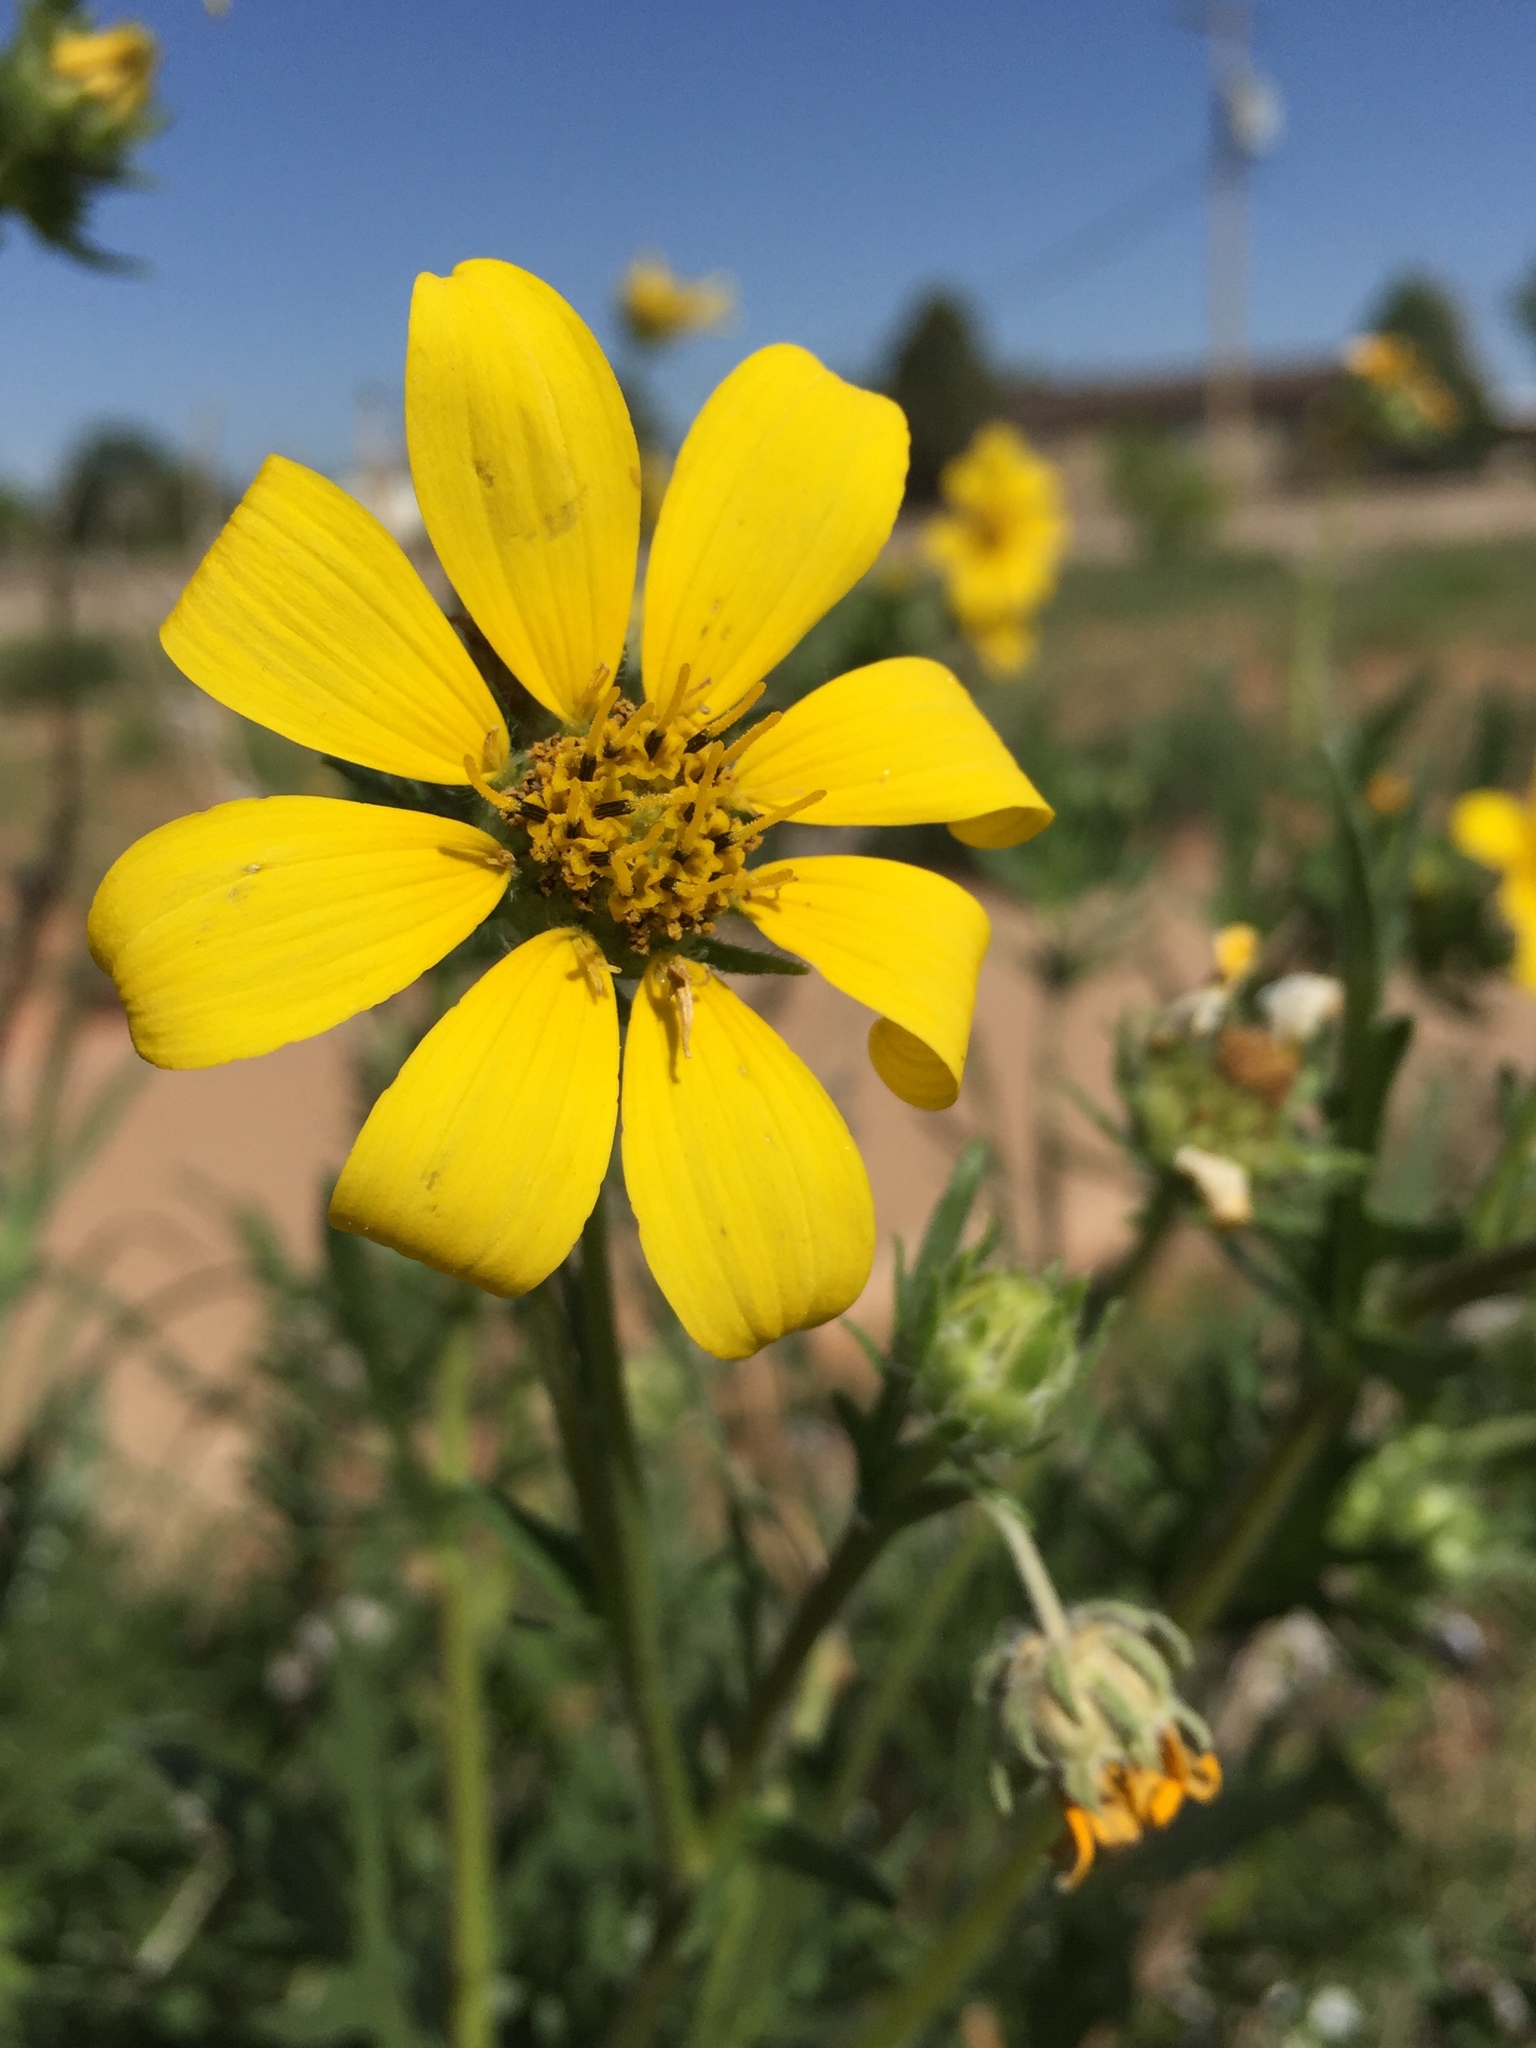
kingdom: Plantae
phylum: Tracheophyta
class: Magnoliopsida
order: Asterales
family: Asteraceae
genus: Engelmannia
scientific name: Engelmannia peristenia
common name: Engelmann's daisy
